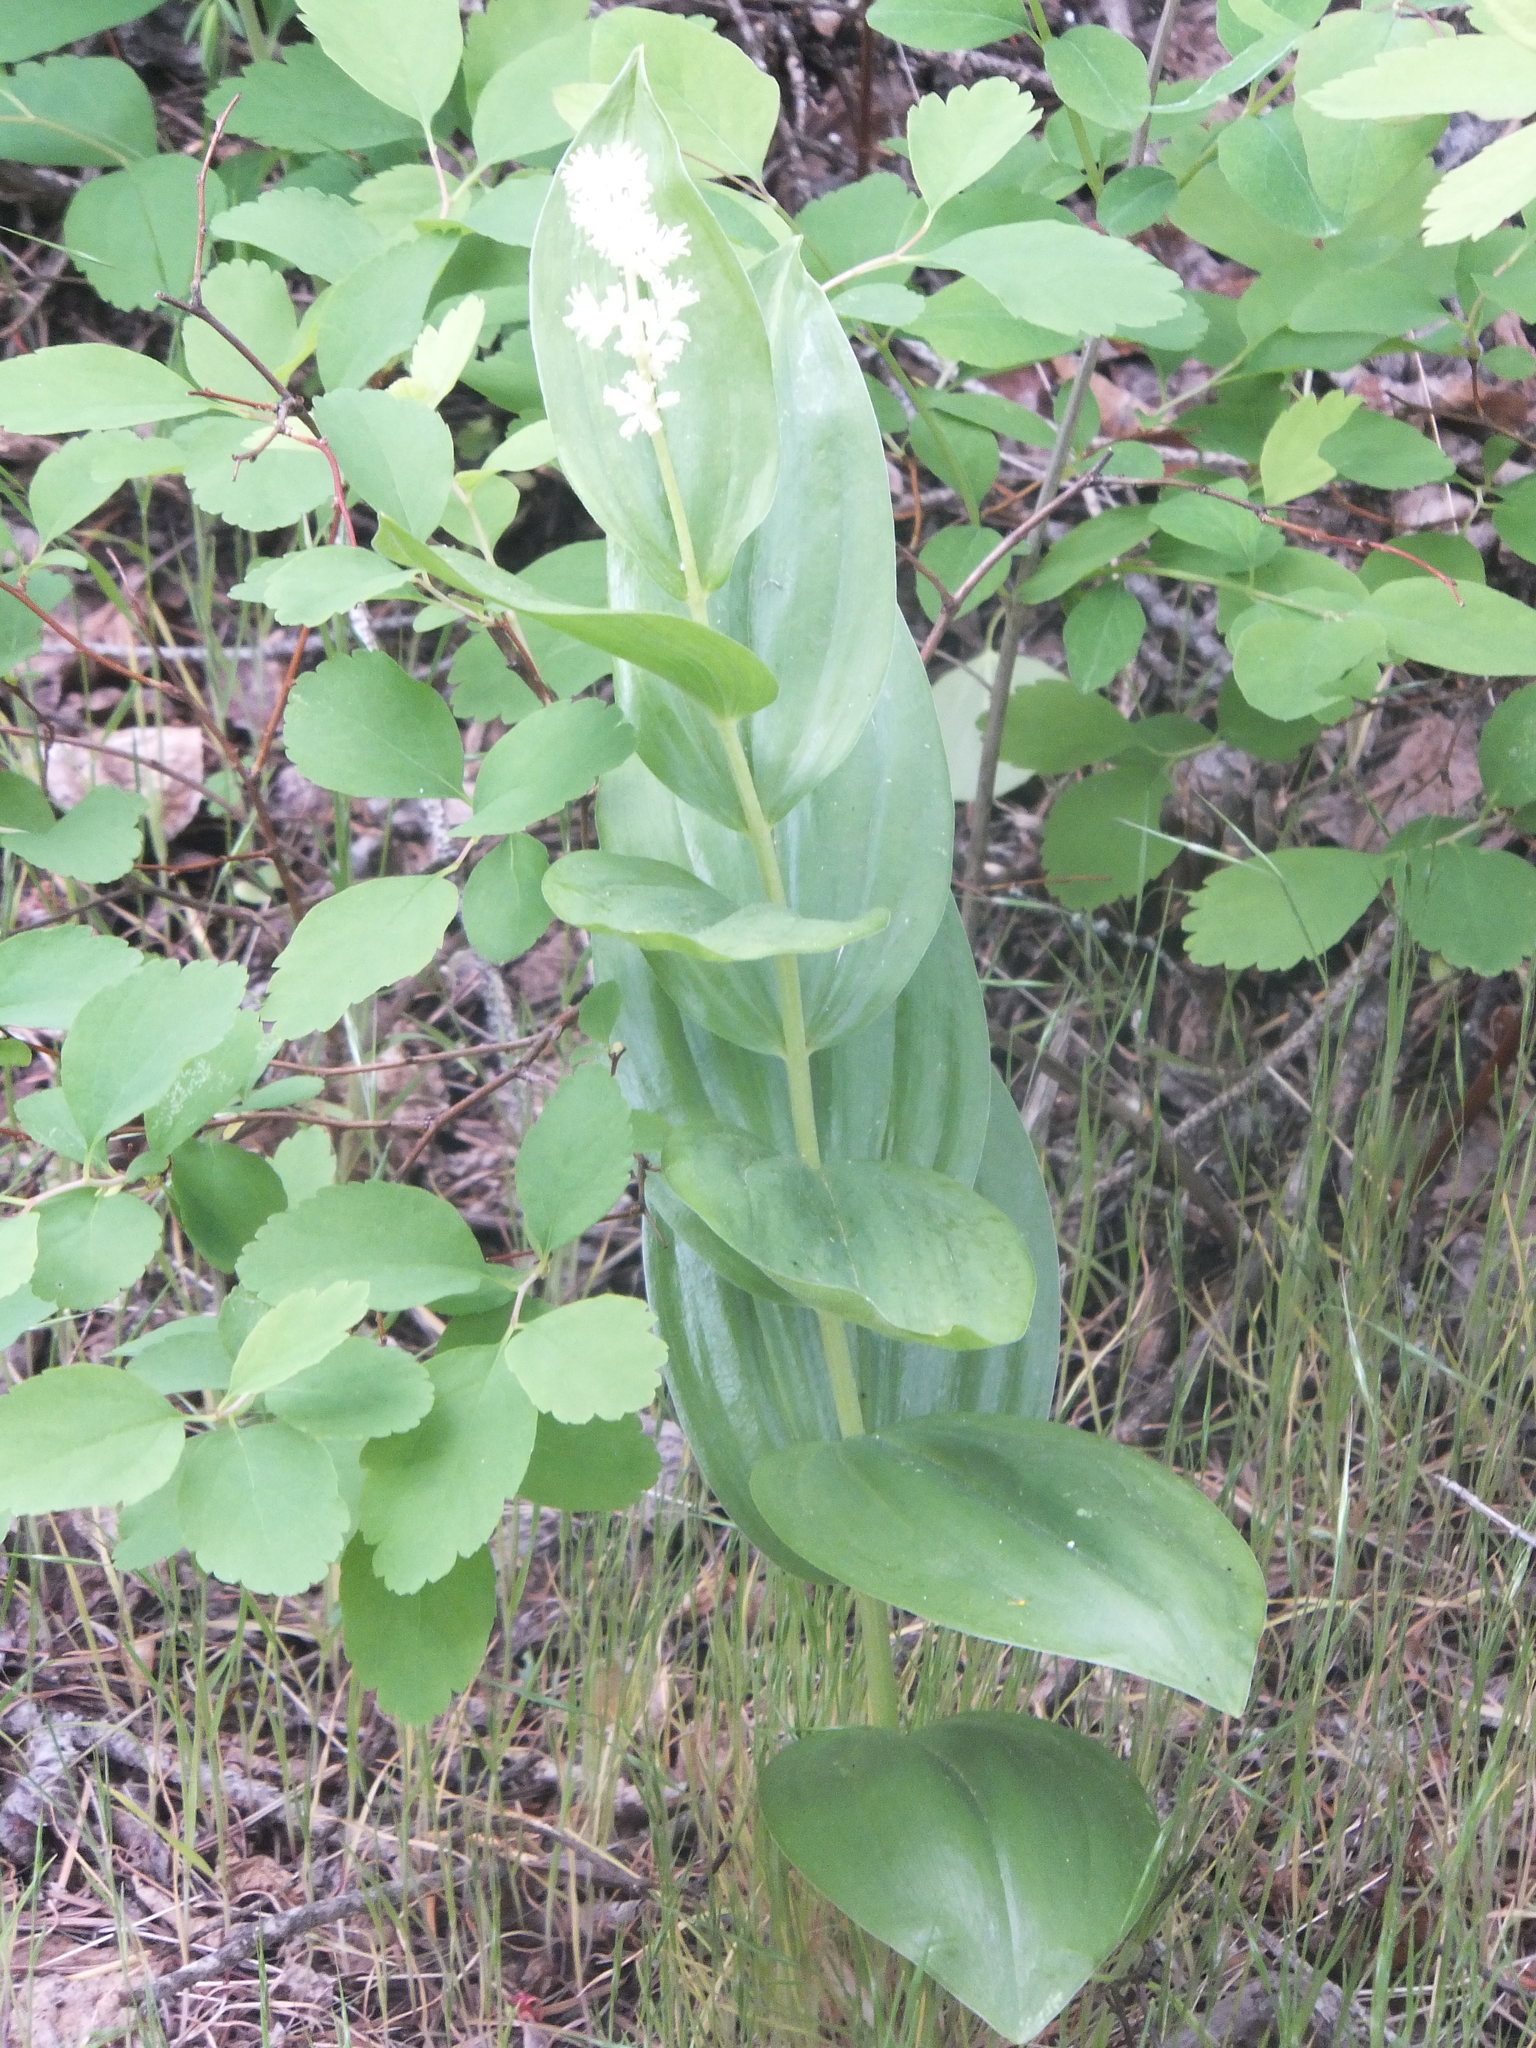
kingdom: Plantae
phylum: Tracheophyta
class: Liliopsida
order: Asparagales
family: Asparagaceae
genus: Maianthemum
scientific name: Maianthemum racemosum
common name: False spikenard
